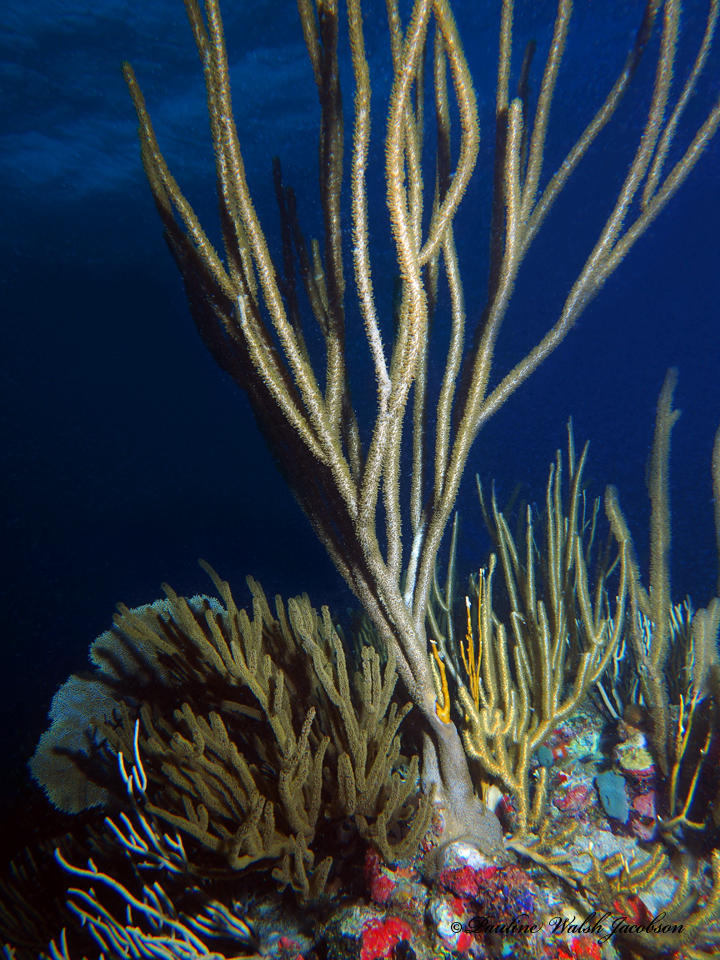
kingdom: Animalia
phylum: Cnidaria
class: Anthozoa
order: Malacalcyonacea
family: Plexauridae
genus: Plexaura
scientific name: Plexaura homomalla
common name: Black sea rod
